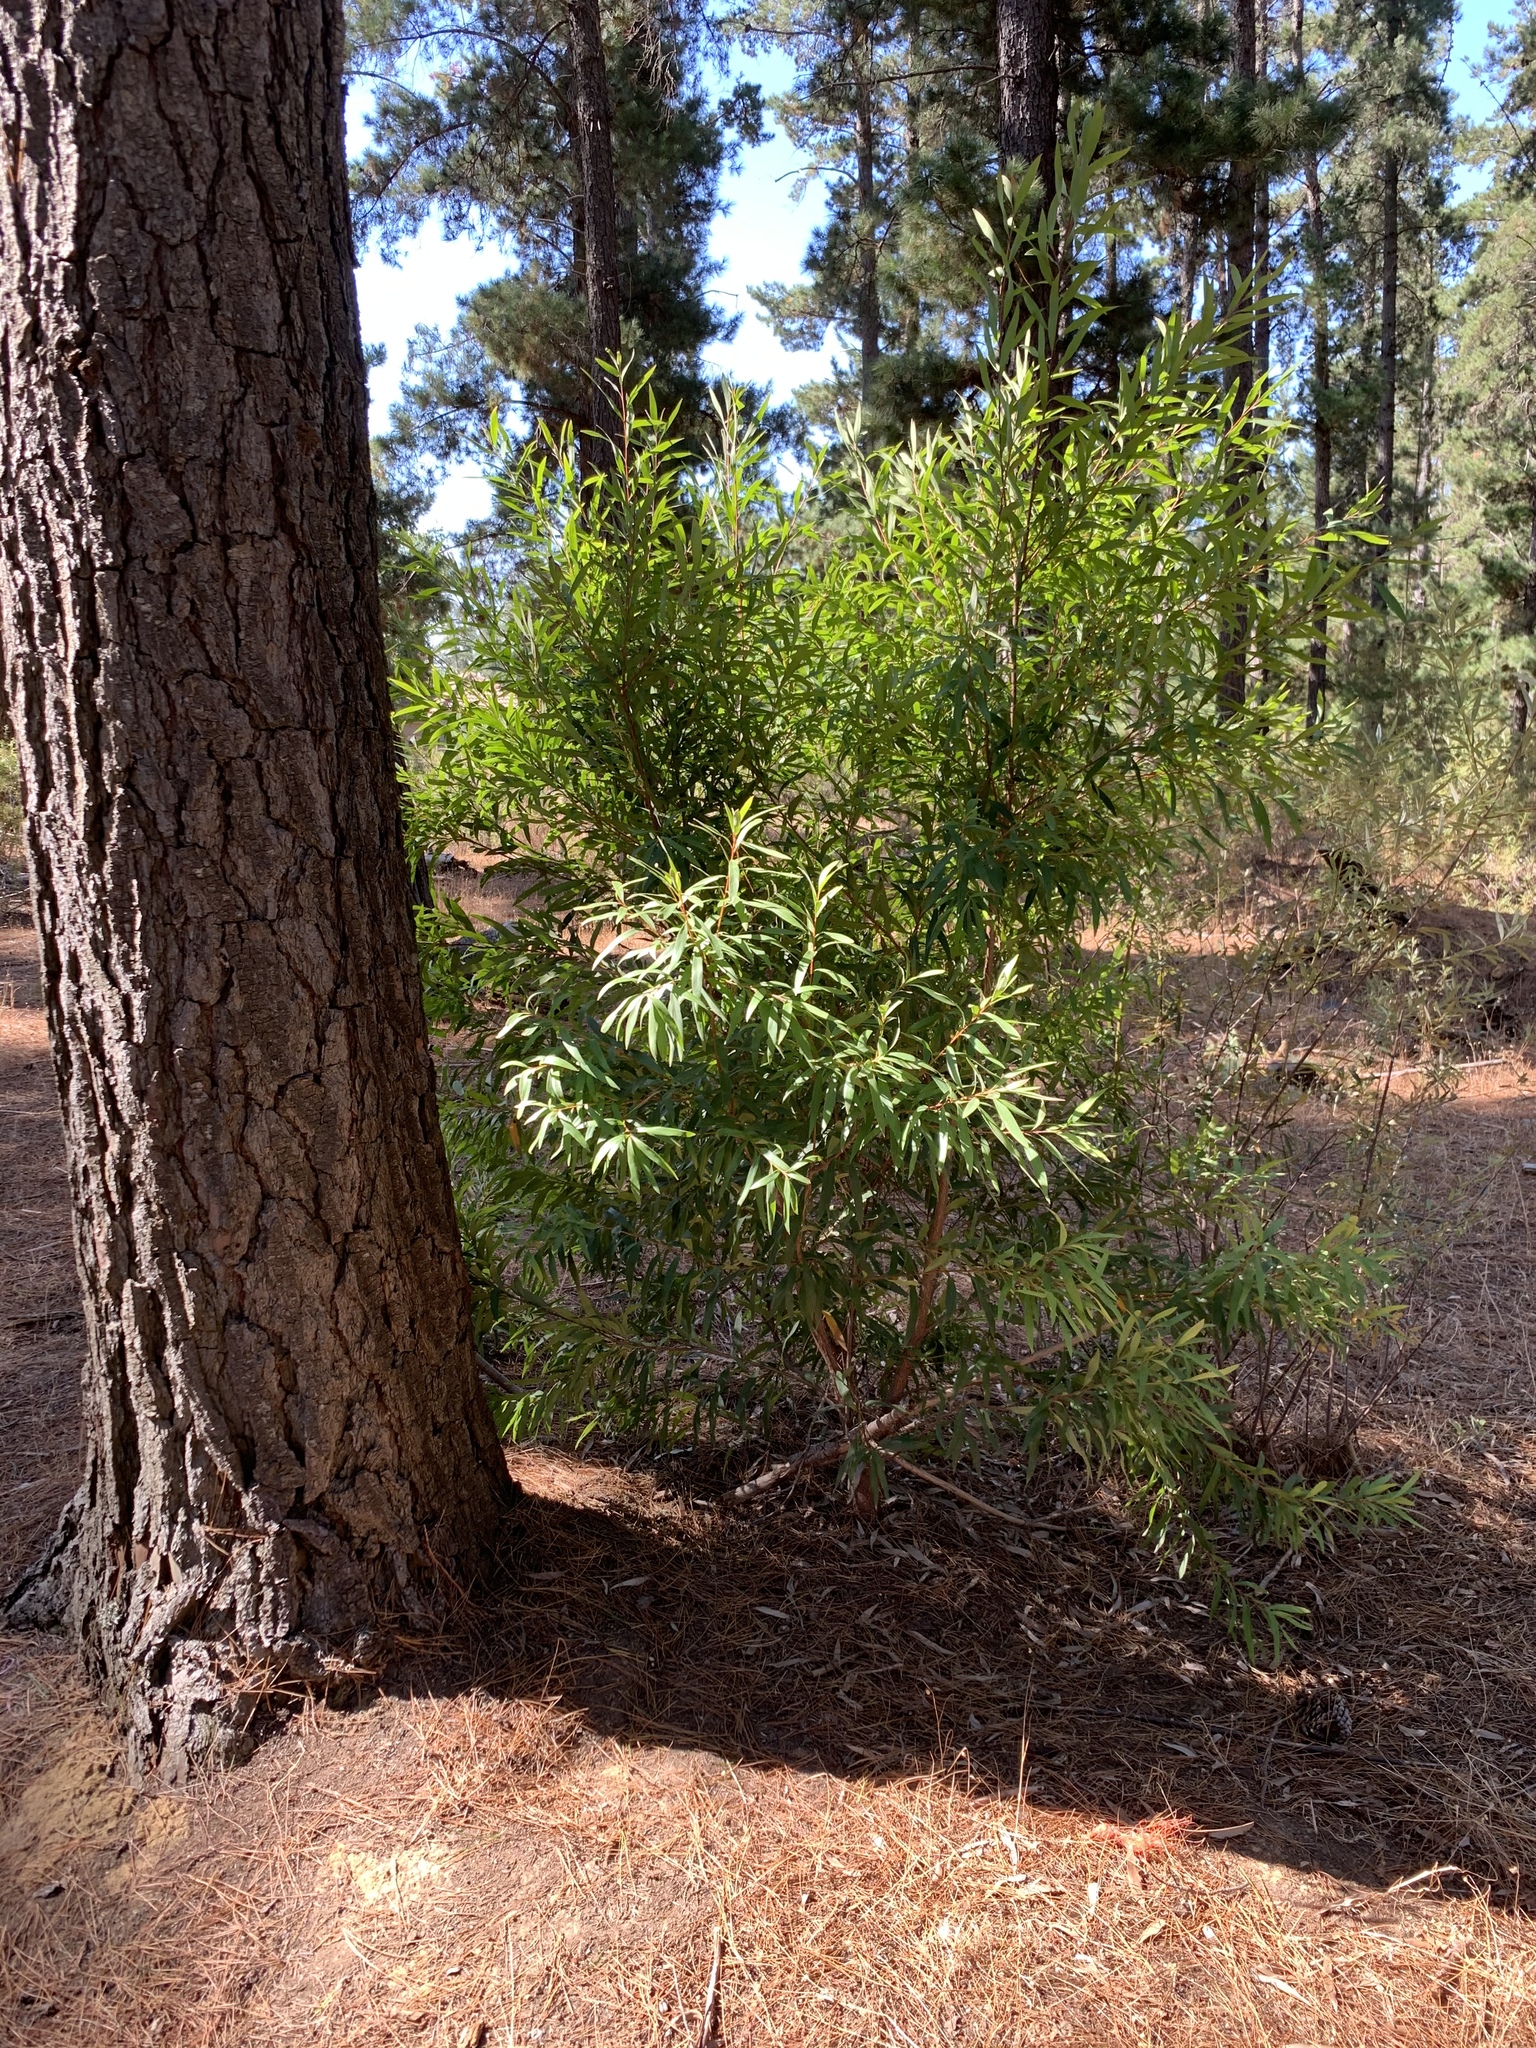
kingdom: Plantae
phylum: Tracheophyta
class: Magnoliopsida
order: Proteales
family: Proteaceae
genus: Hakea
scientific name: Hakea salicifolia
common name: Willow hakea
